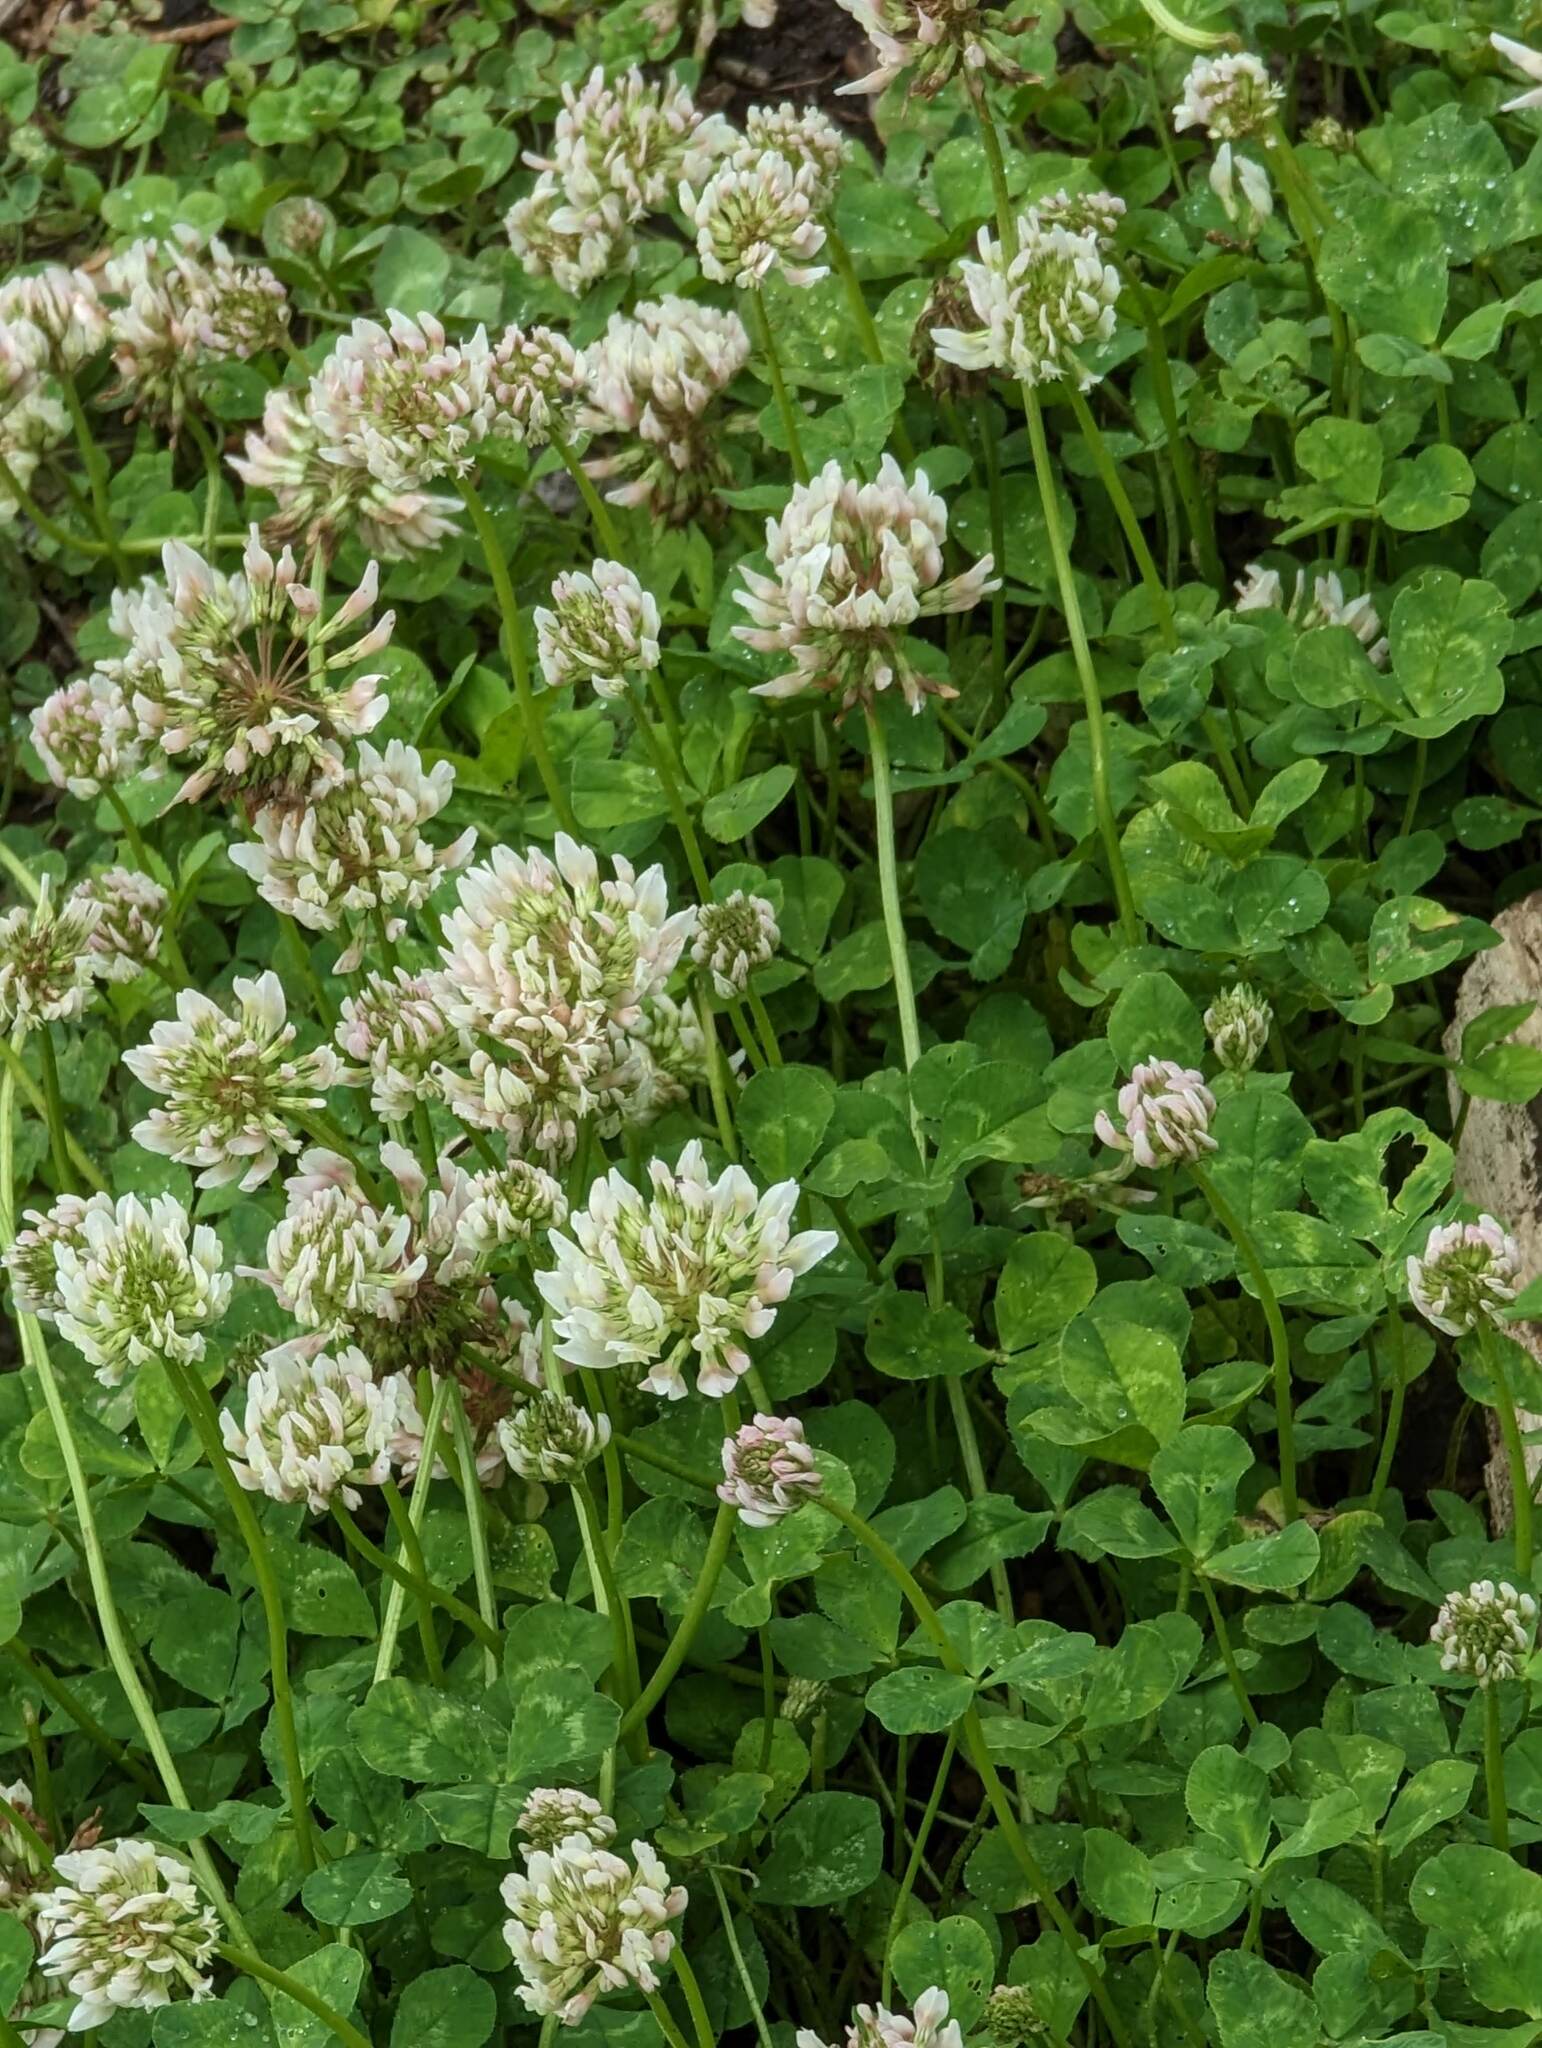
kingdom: Plantae
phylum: Tracheophyta
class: Magnoliopsida
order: Fabales
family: Fabaceae
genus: Trifolium
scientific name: Trifolium repens
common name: White clover
